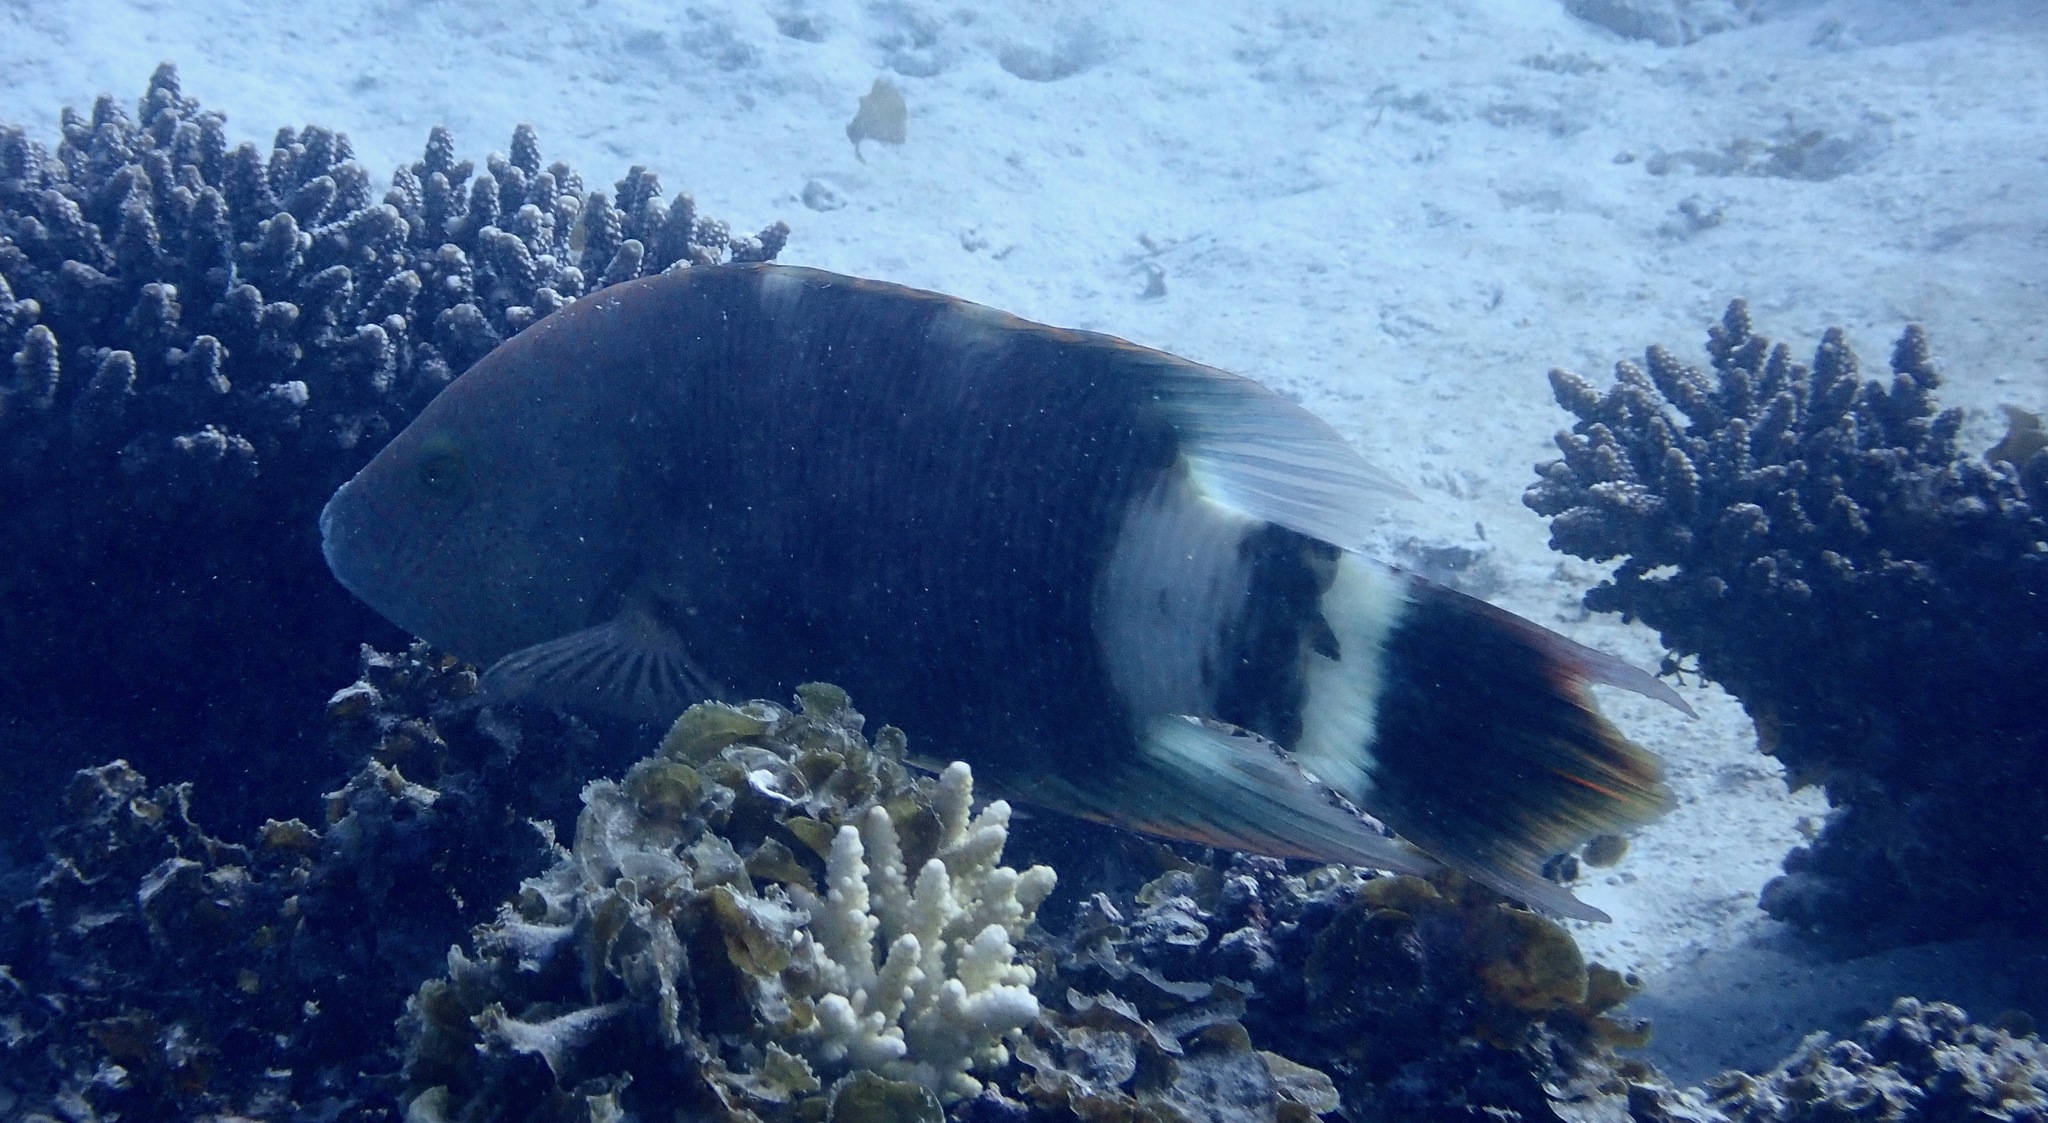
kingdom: Animalia
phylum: Chordata
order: Perciformes
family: Labridae
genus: Cheilinus
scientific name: Cheilinus trilobatus
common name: Tripletail maori wrasse
